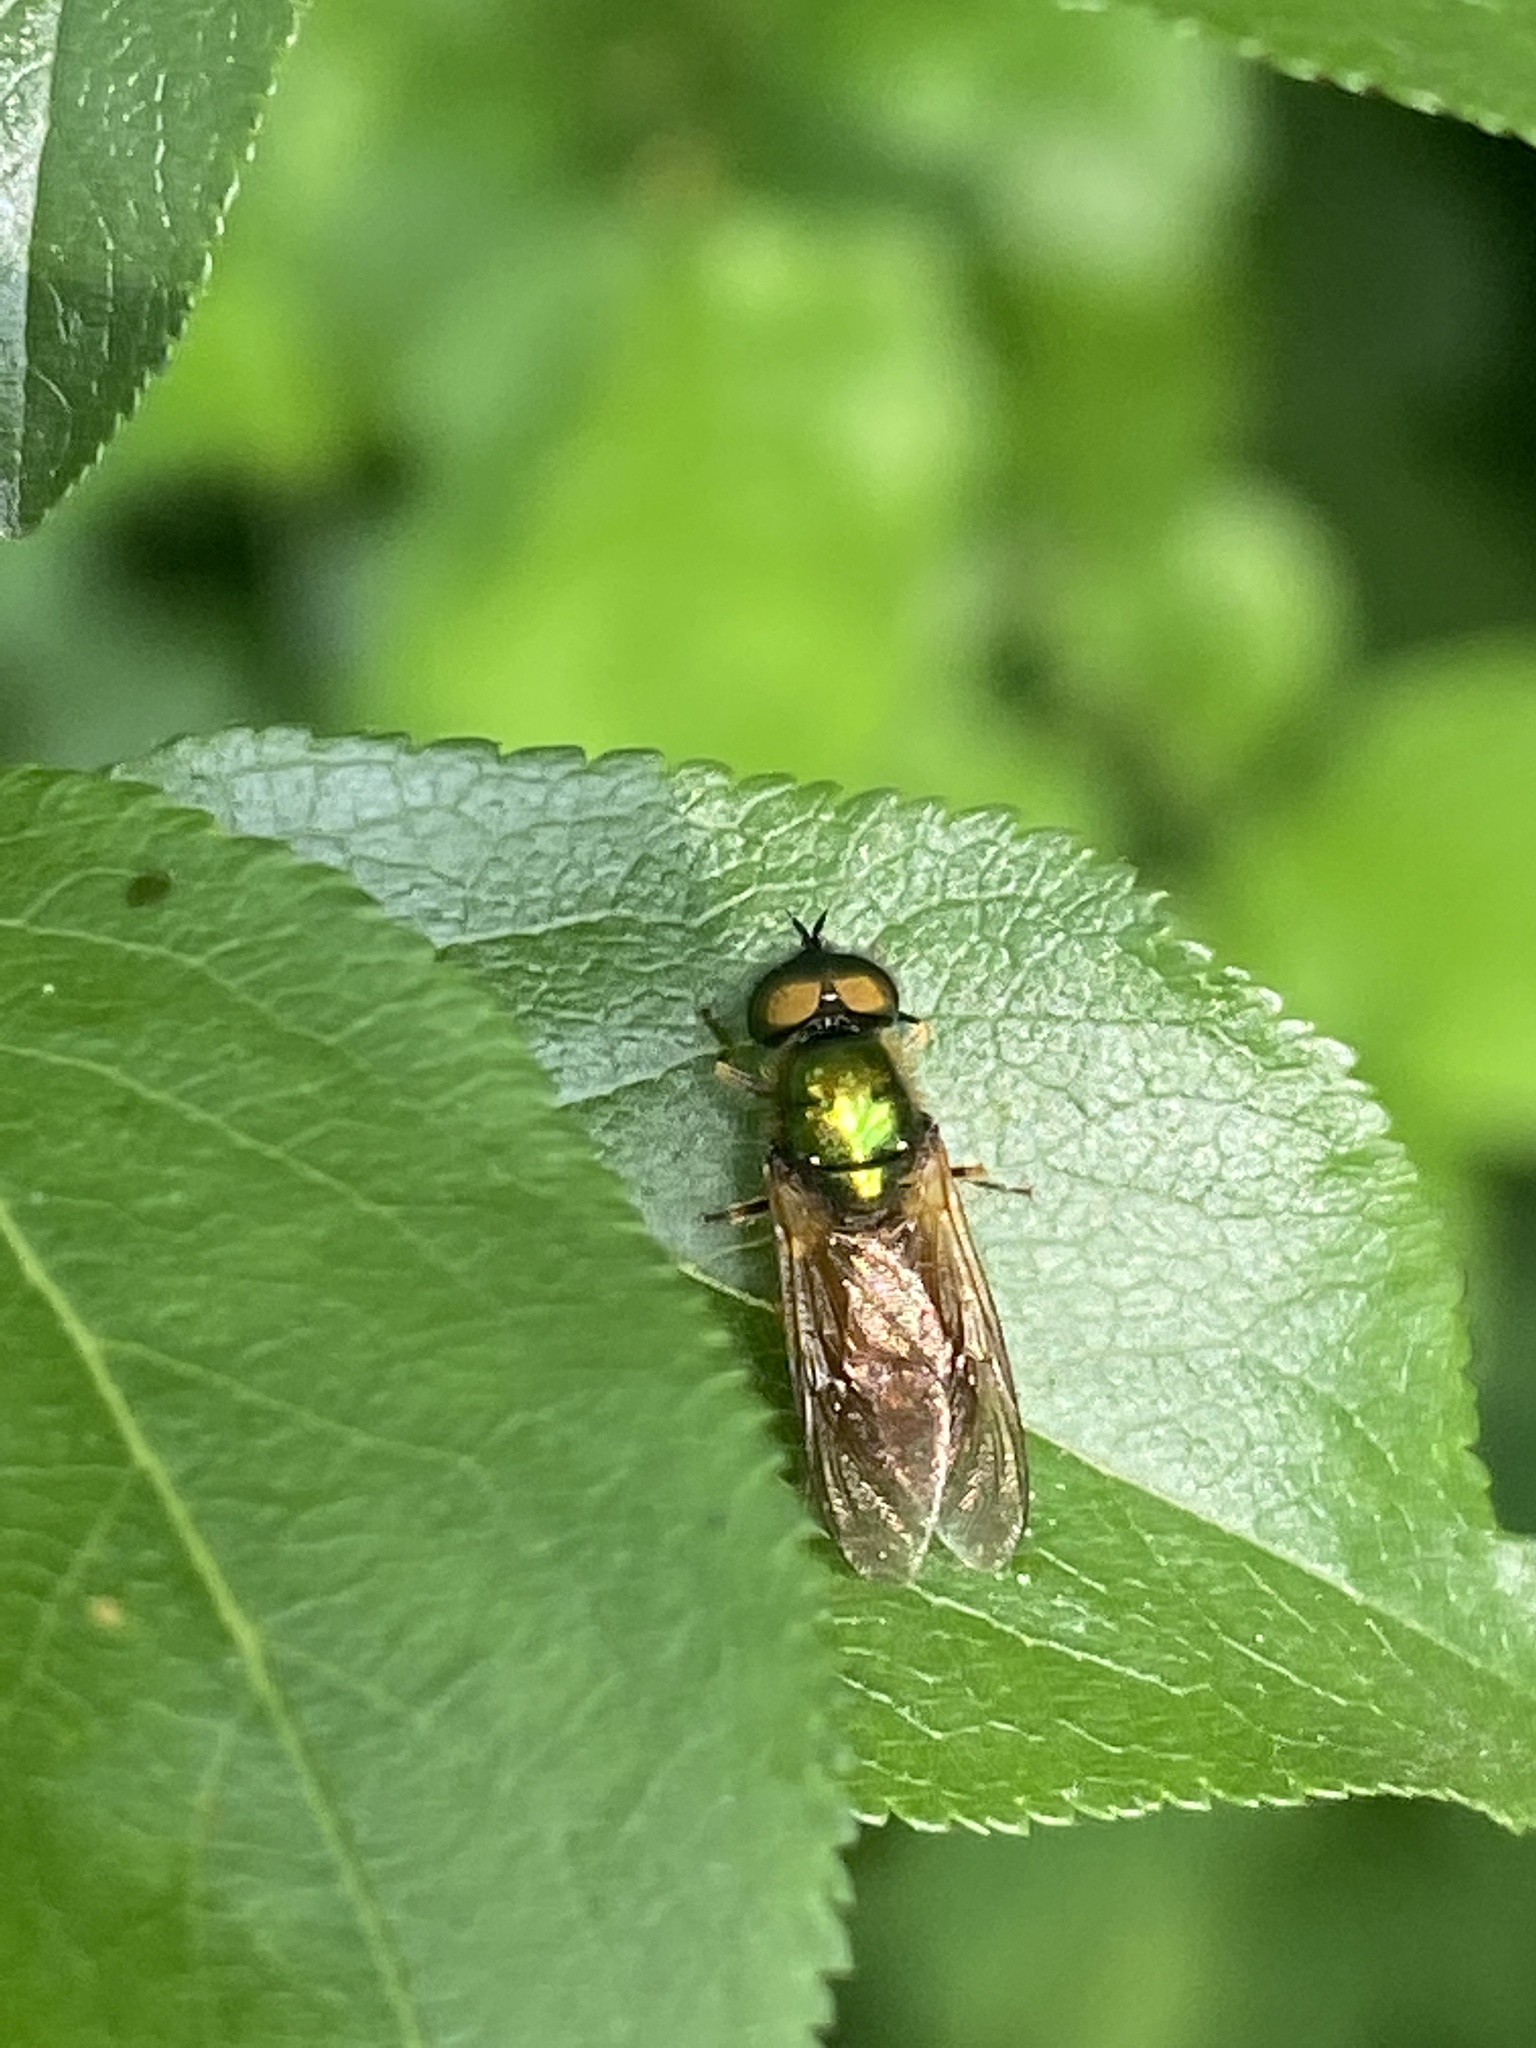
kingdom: Animalia
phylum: Arthropoda
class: Insecta
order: Diptera
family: Stratiomyidae
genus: Chloromyia
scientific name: Chloromyia formosa
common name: Soldier fly
